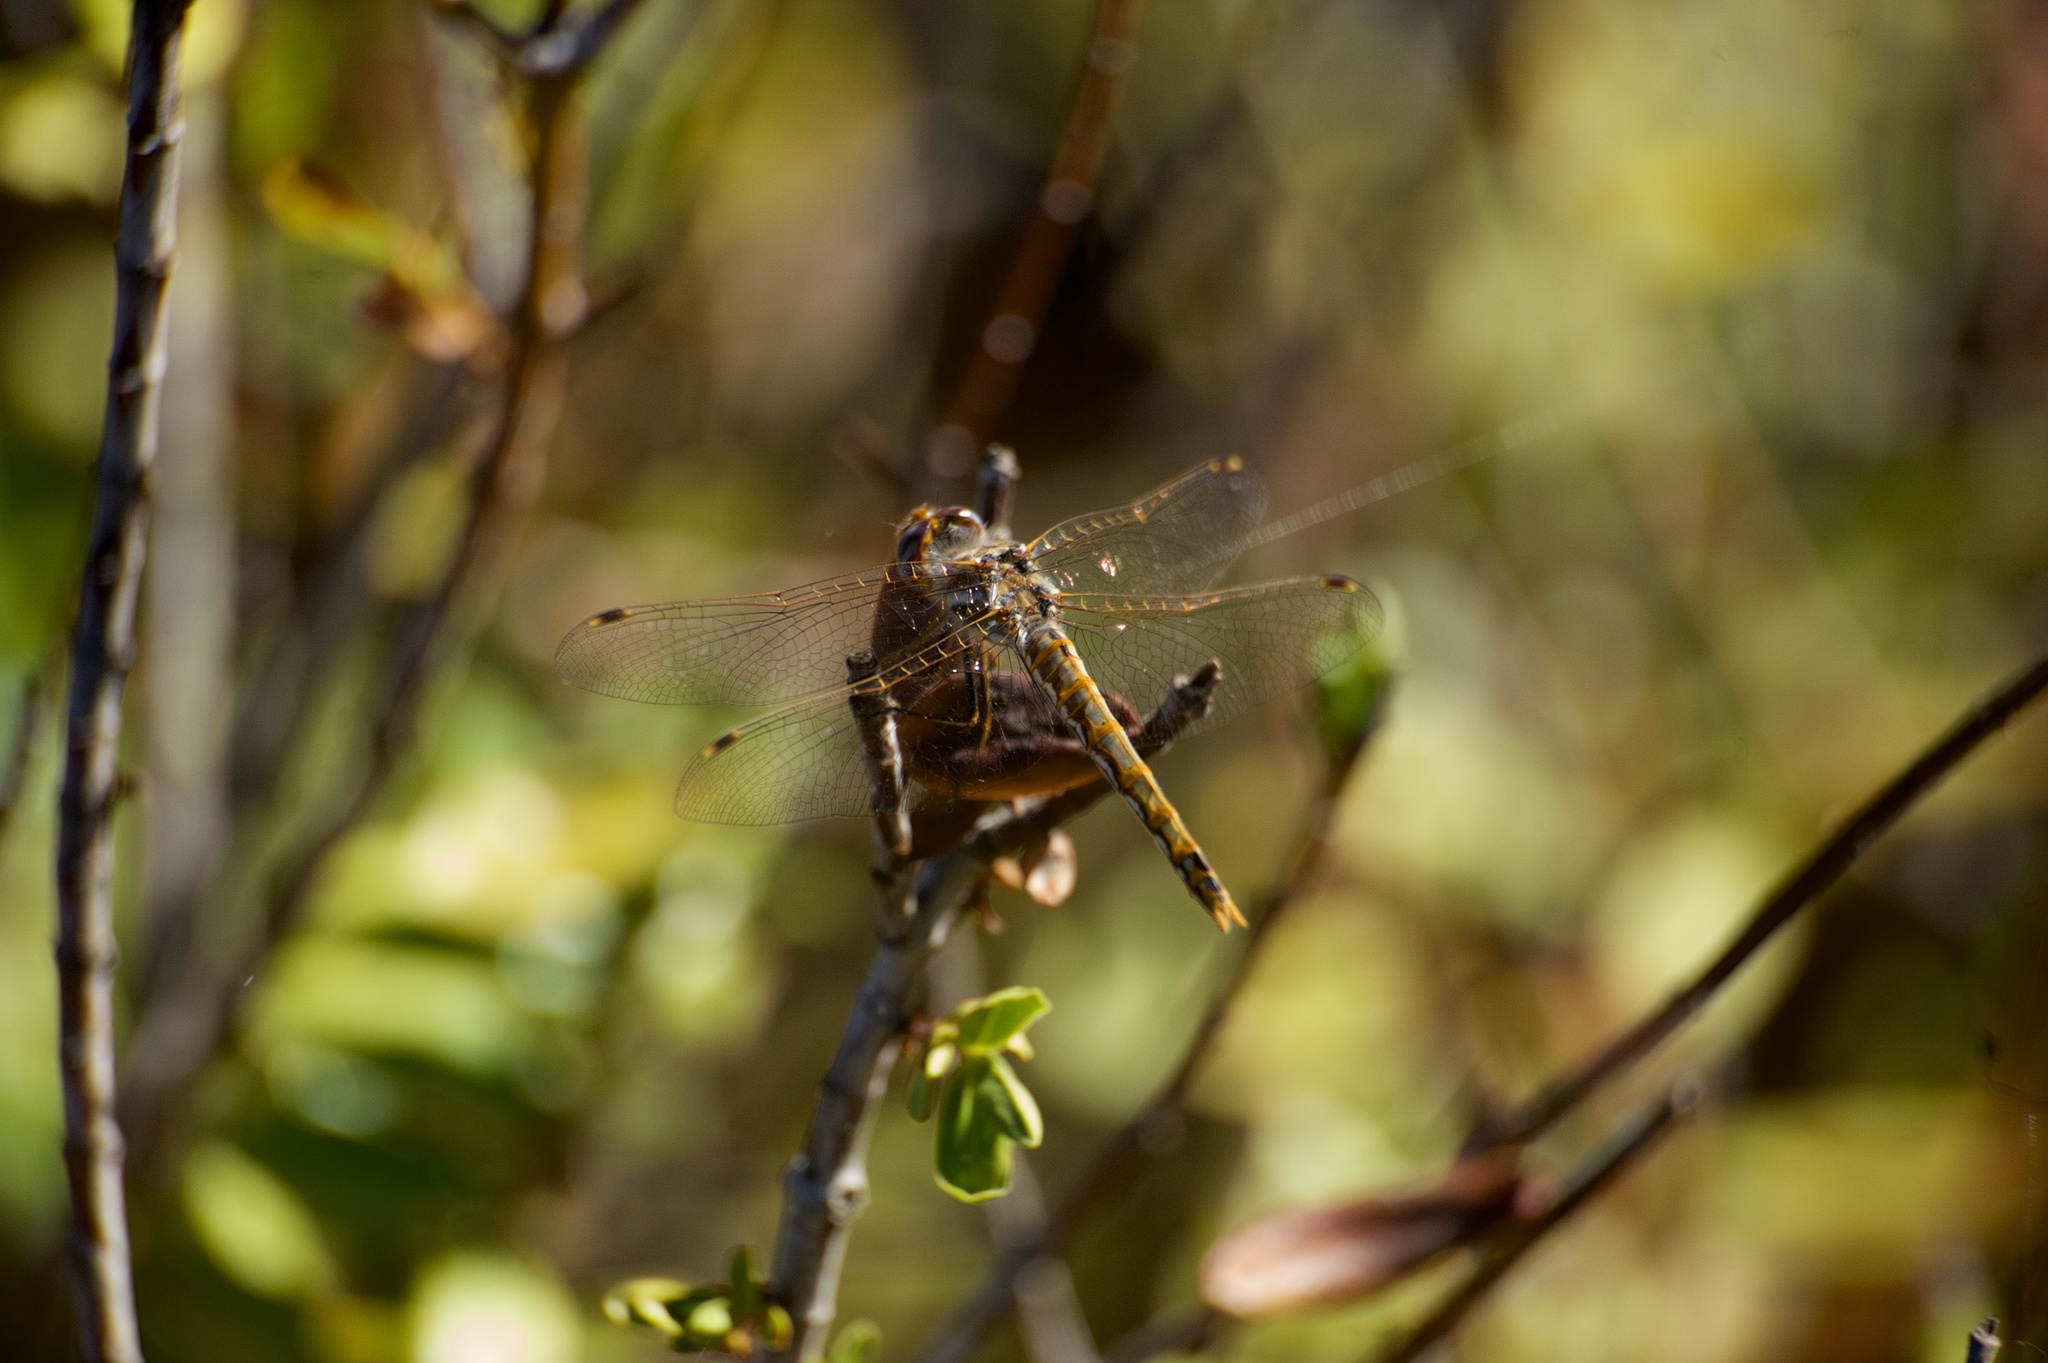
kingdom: Animalia
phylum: Arthropoda
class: Insecta
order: Odonata
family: Libellulidae
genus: Sympetrum
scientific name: Sympetrum corruptum
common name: Variegated meadowhawk
